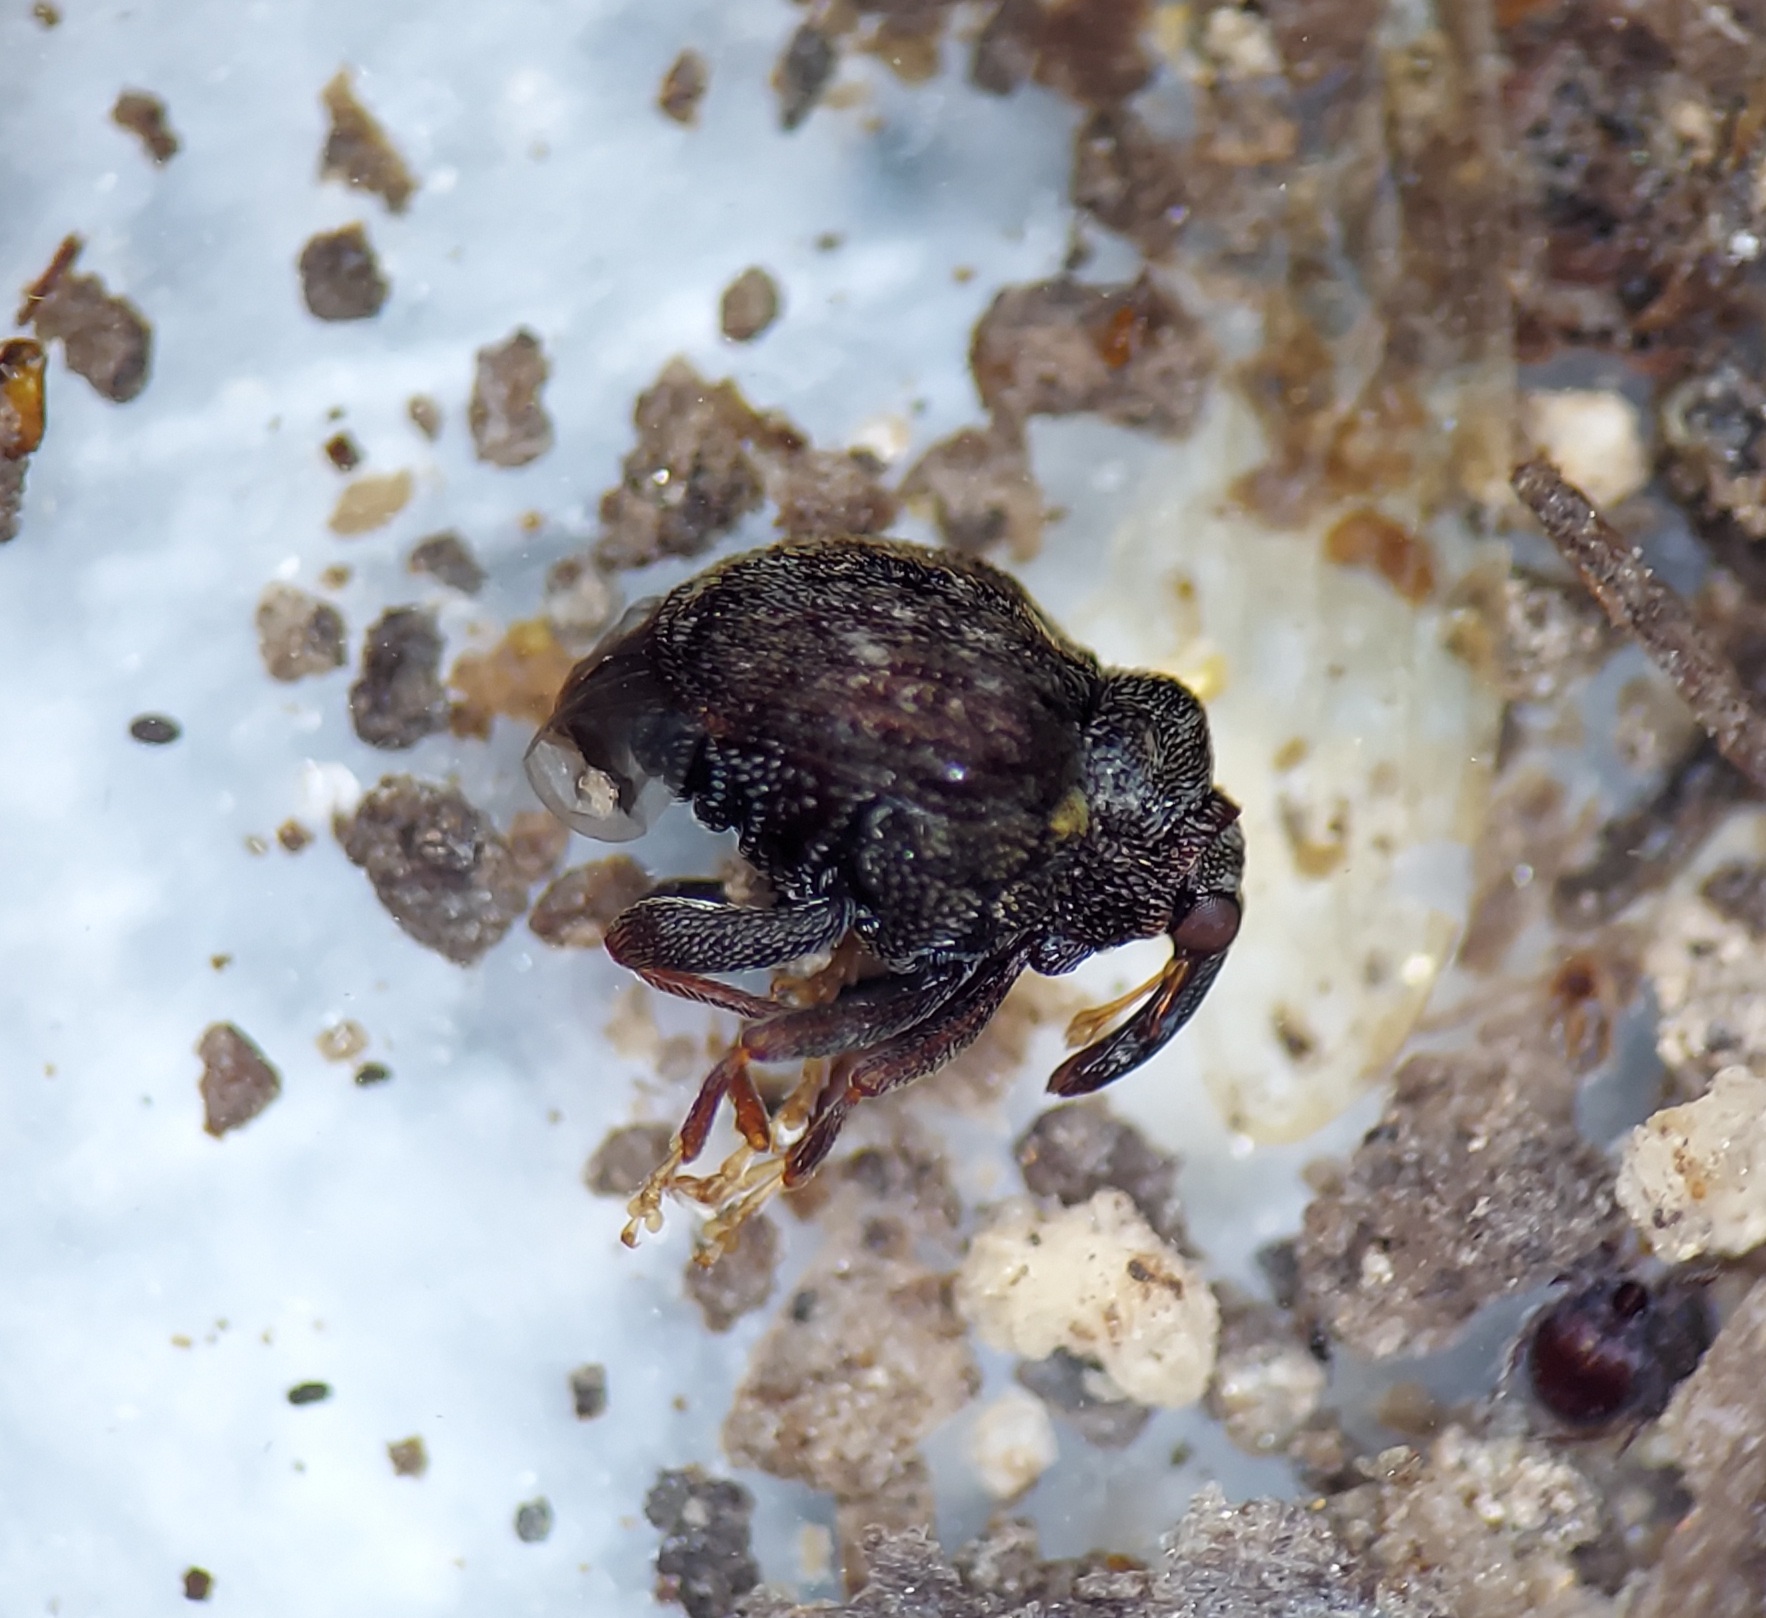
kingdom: Animalia
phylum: Arthropoda
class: Insecta
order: Coleoptera
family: Curculionidae
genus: Orchestomerus
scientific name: Orchestomerus eisemani
